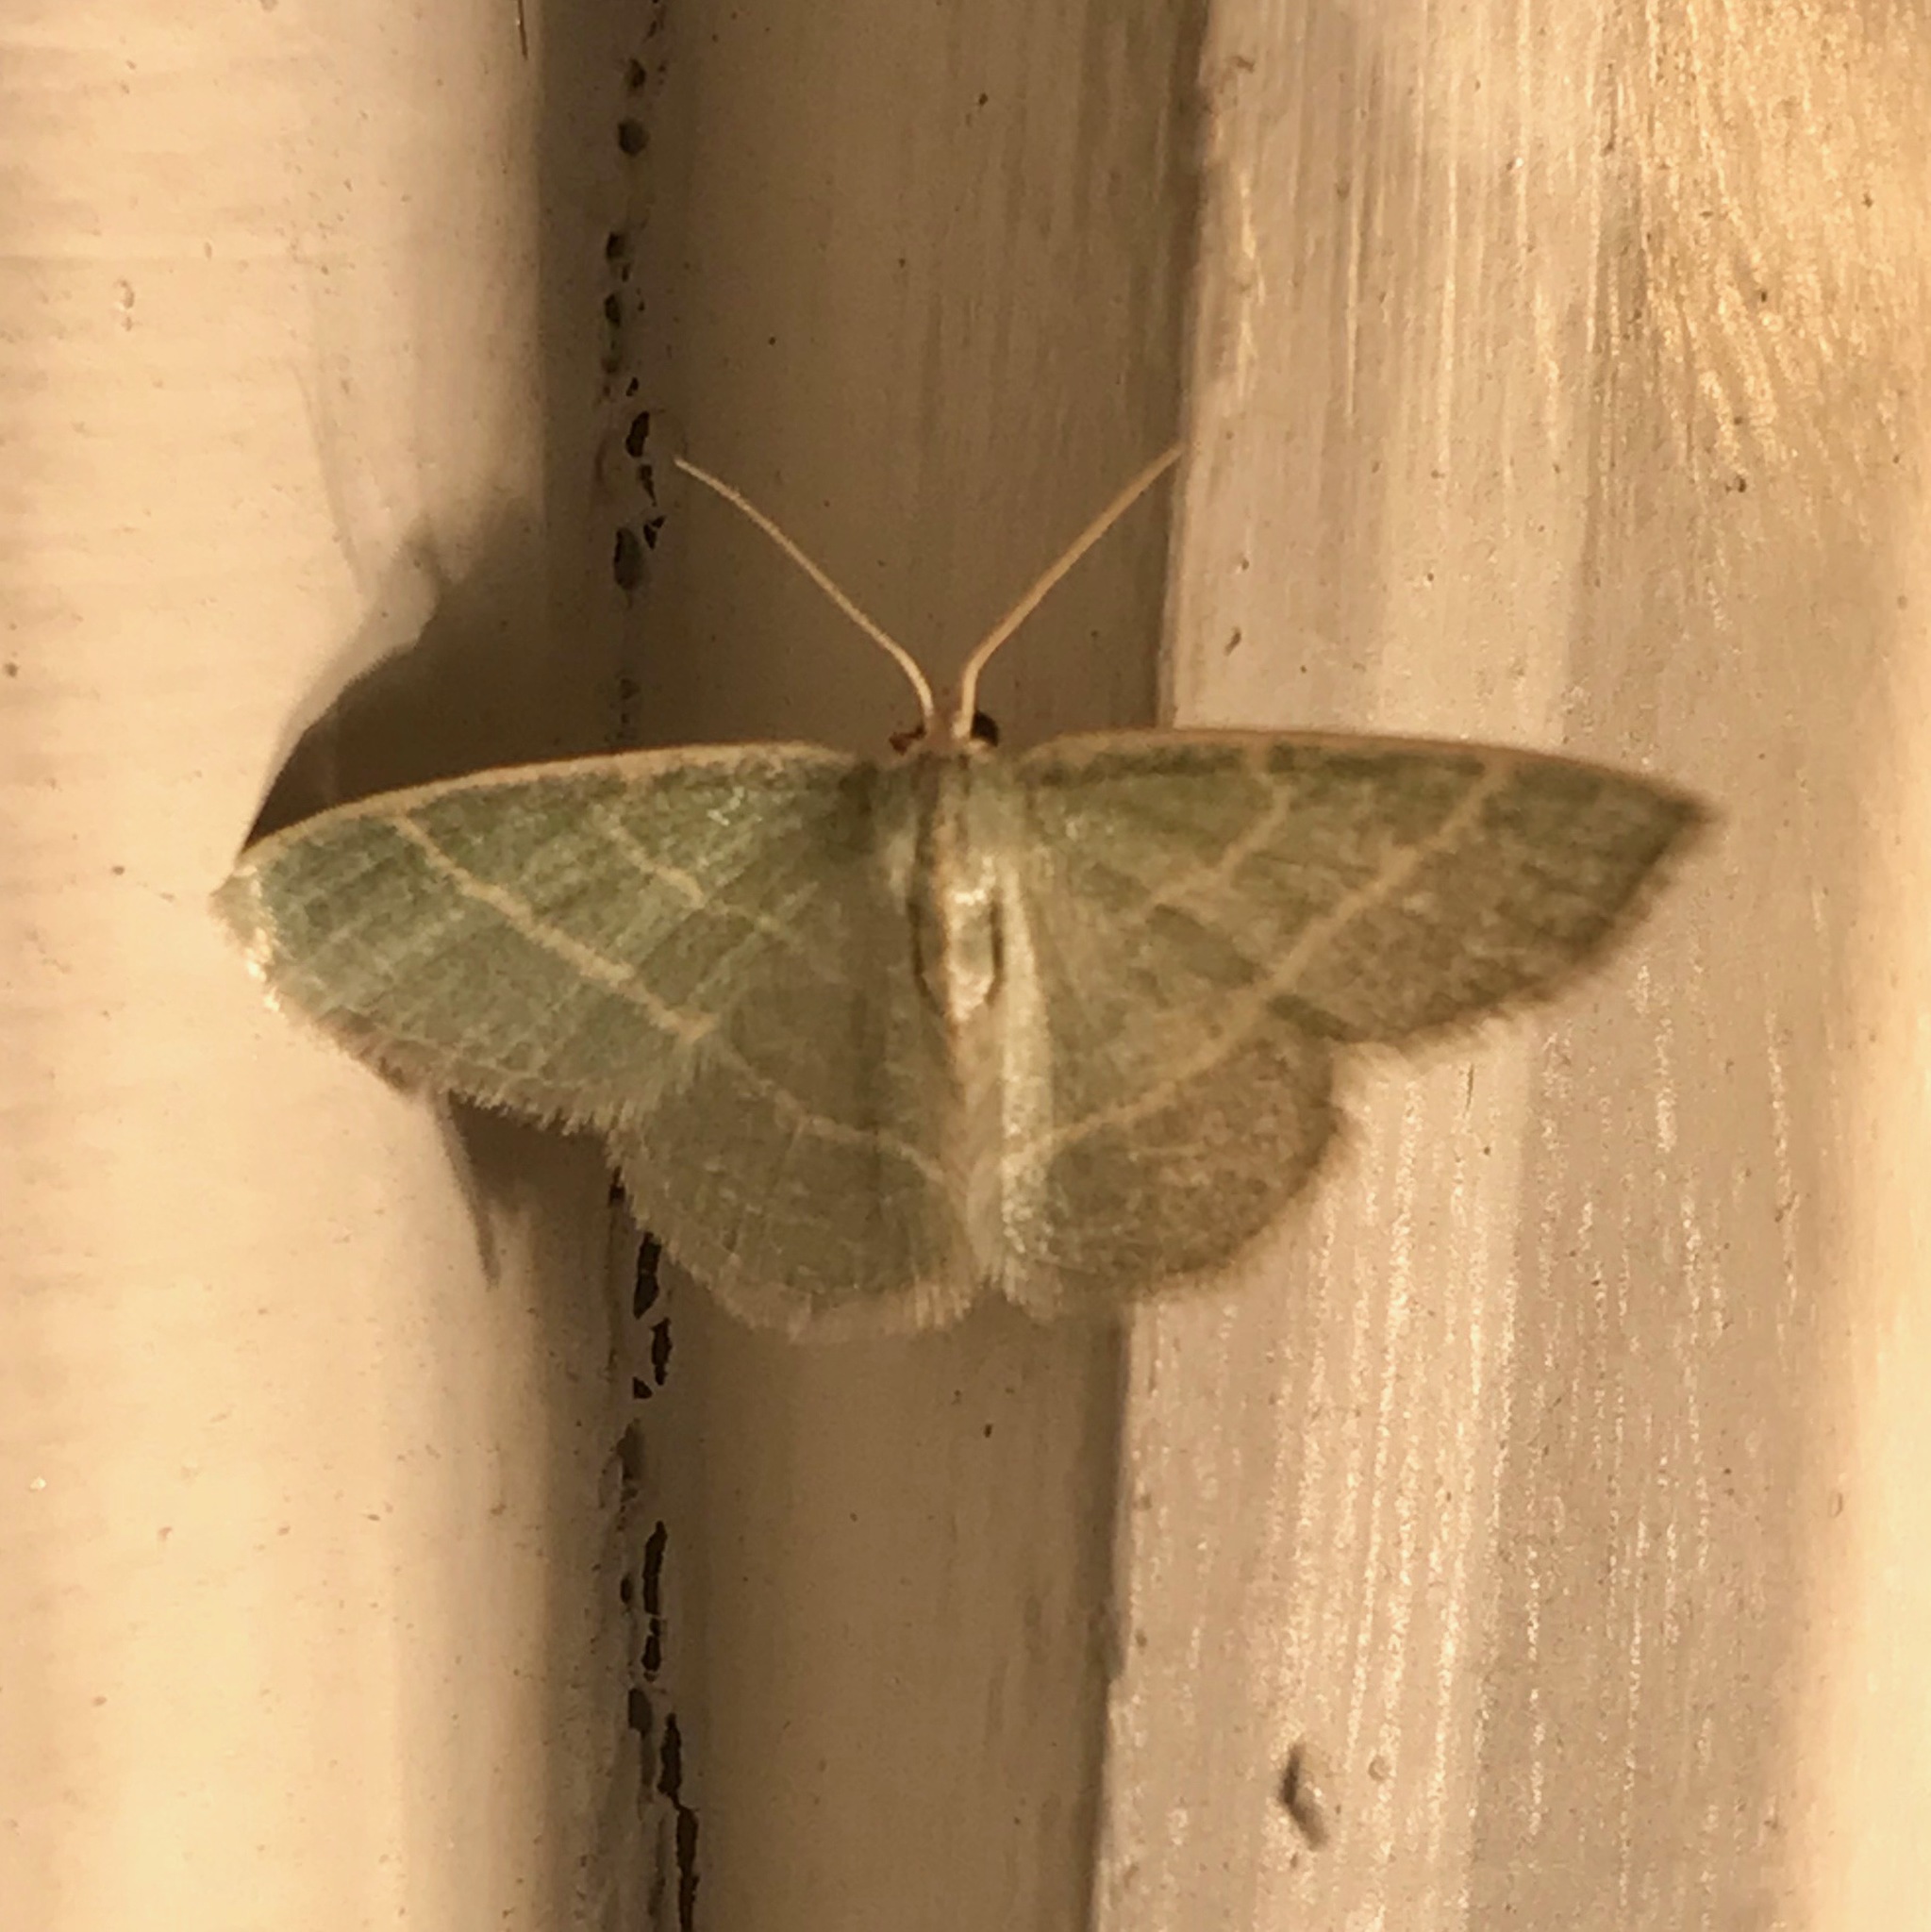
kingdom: Animalia
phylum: Arthropoda
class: Insecta
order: Lepidoptera
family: Geometridae
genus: Chlorochlamys
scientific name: Chlorochlamys chloroleucaria
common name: Blackberry looper
